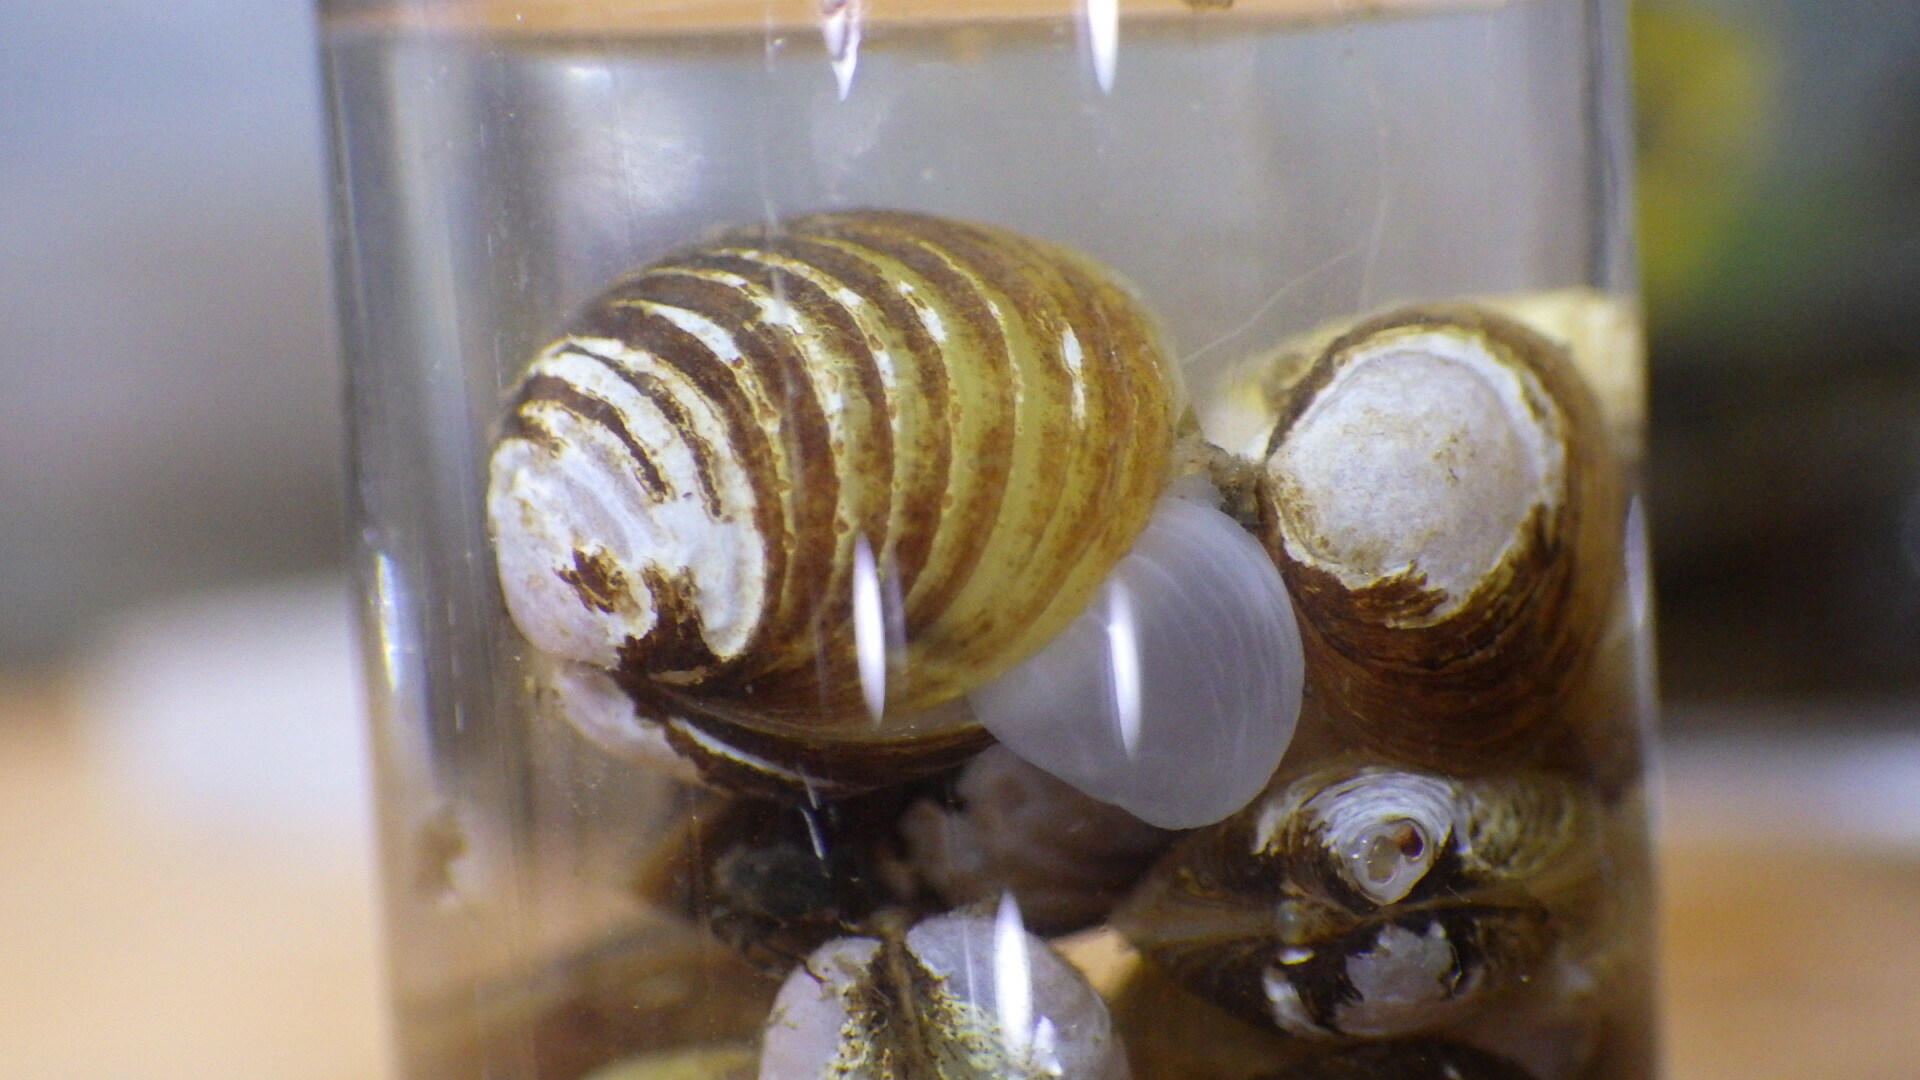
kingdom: Animalia
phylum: Mollusca
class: Bivalvia
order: Venerida
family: Cyrenidae
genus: Corbicula
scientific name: Corbicula fluminea
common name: Asian clam
